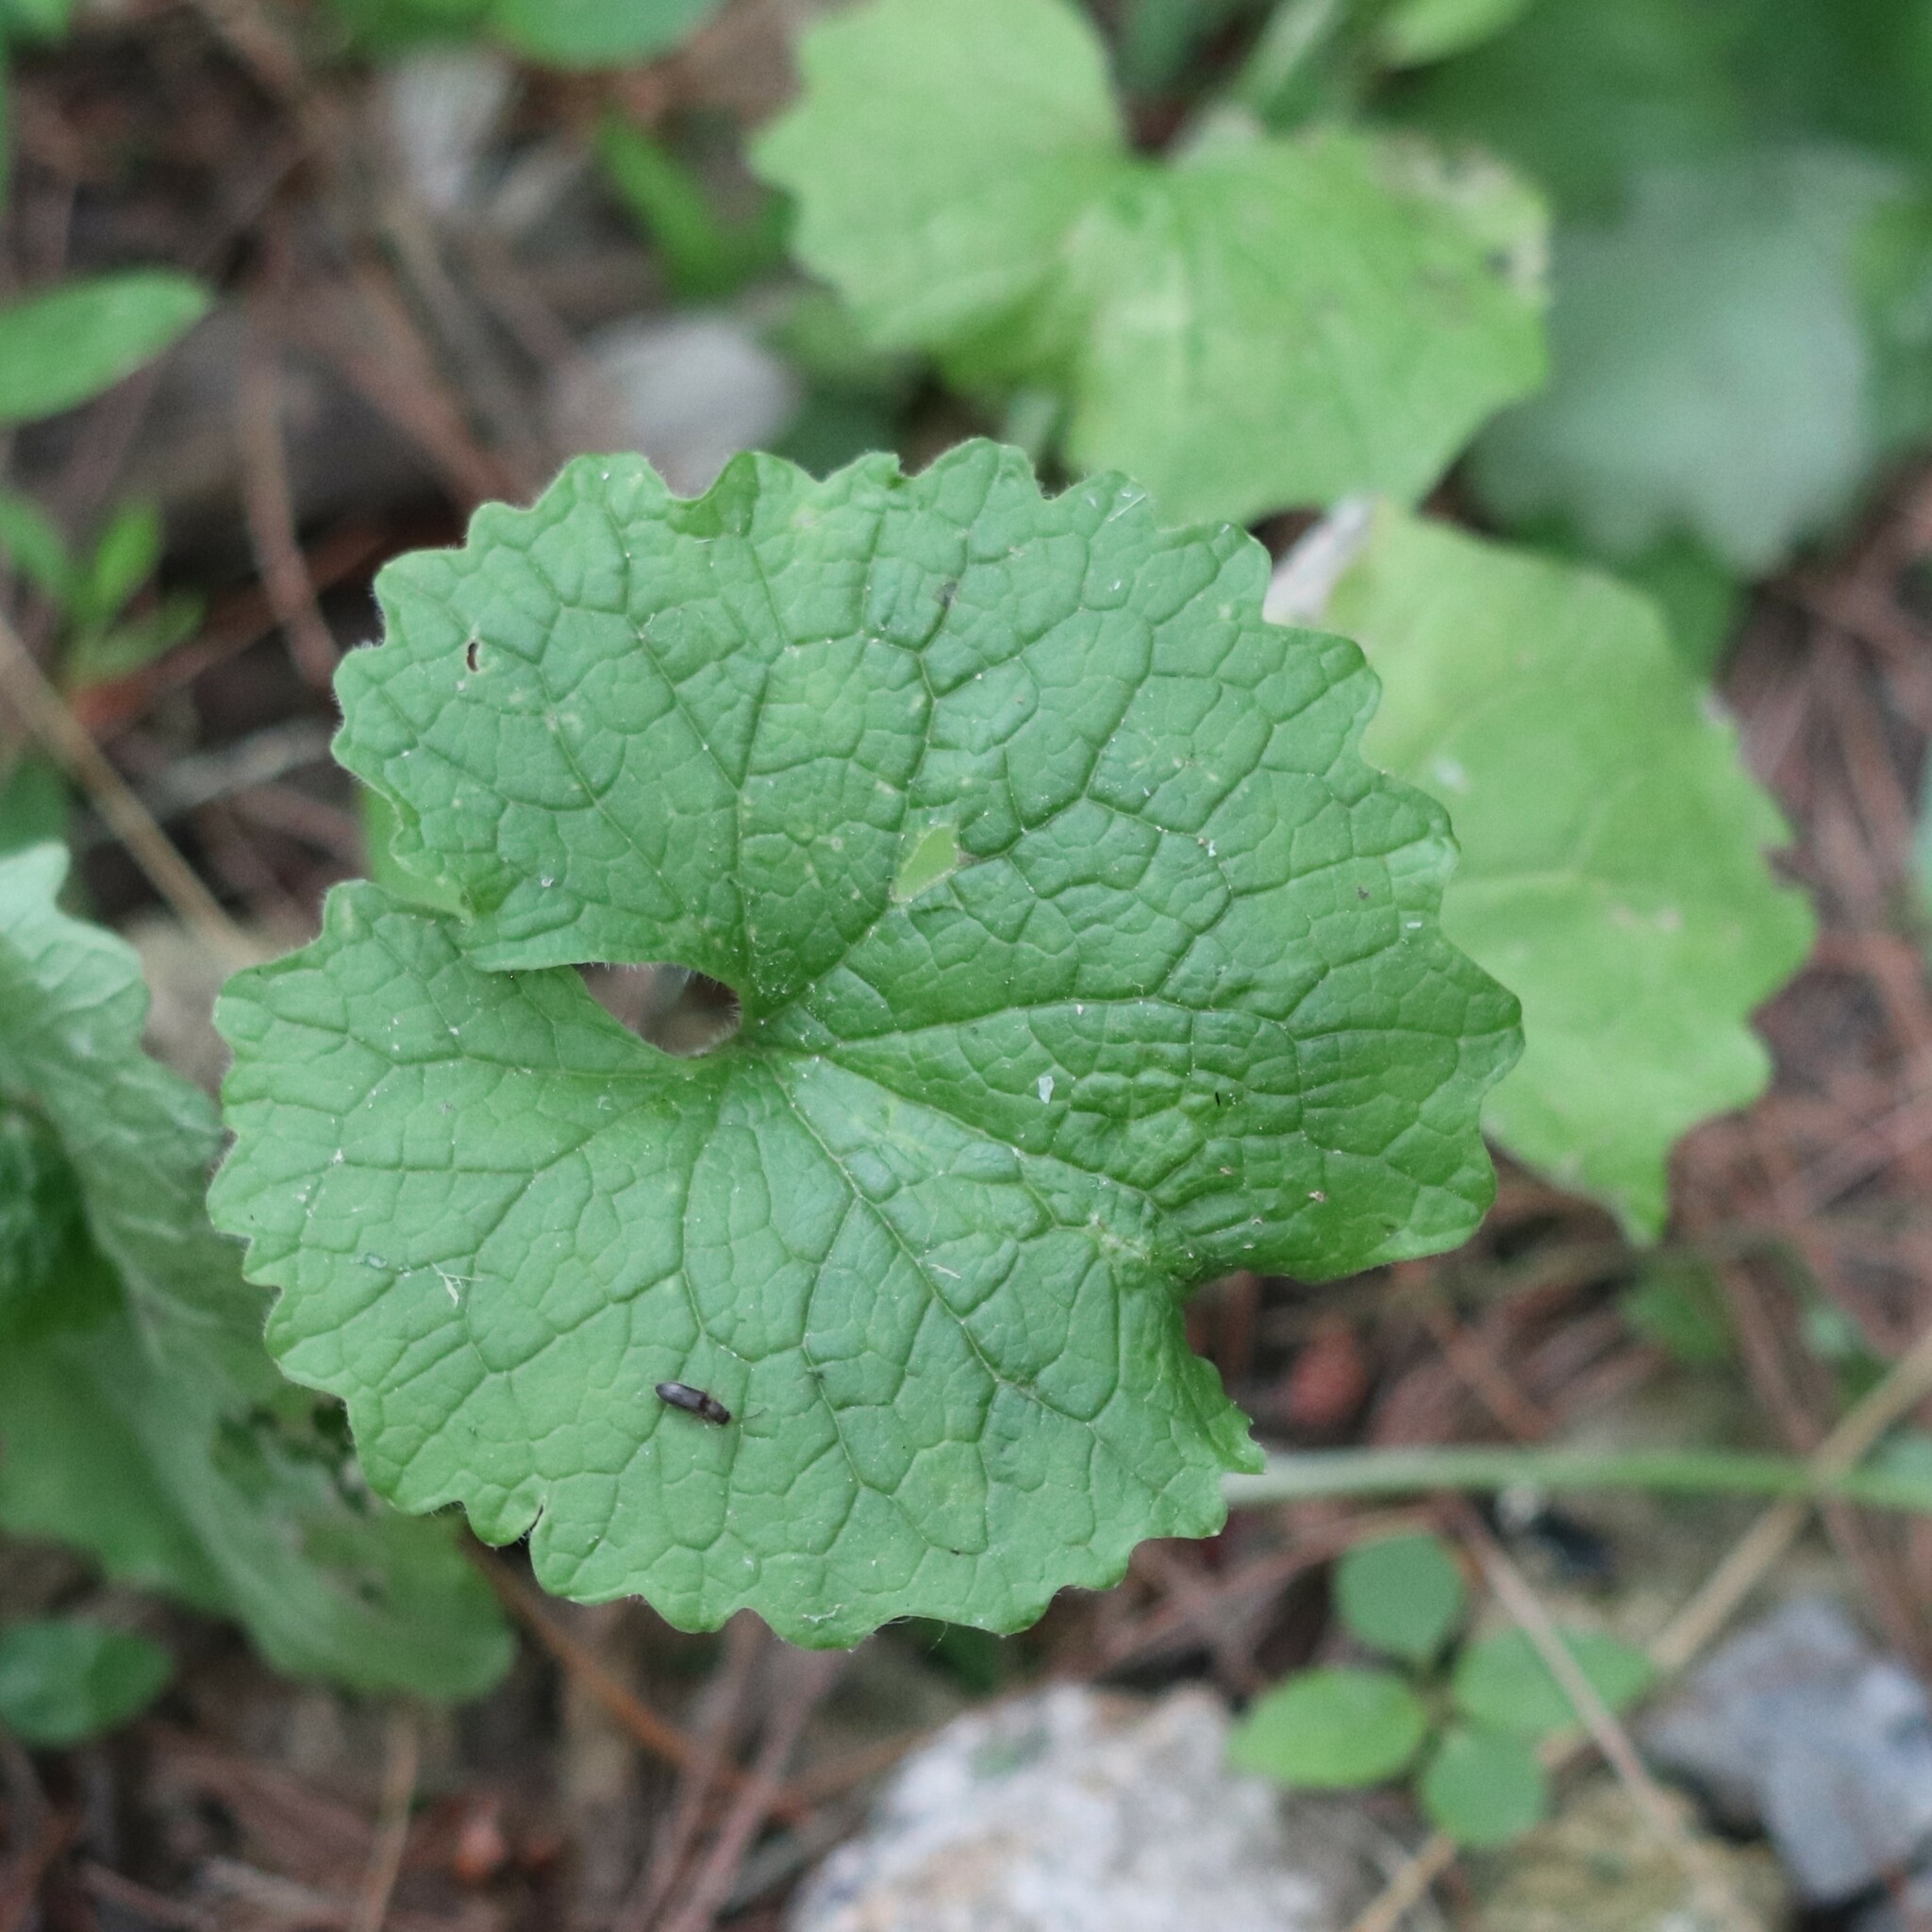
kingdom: Plantae
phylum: Tracheophyta
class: Magnoliopsida
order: Brassicales
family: Brassicaceae
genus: Alliaria
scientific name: Alliaria petiolata
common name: Garlic mustard
